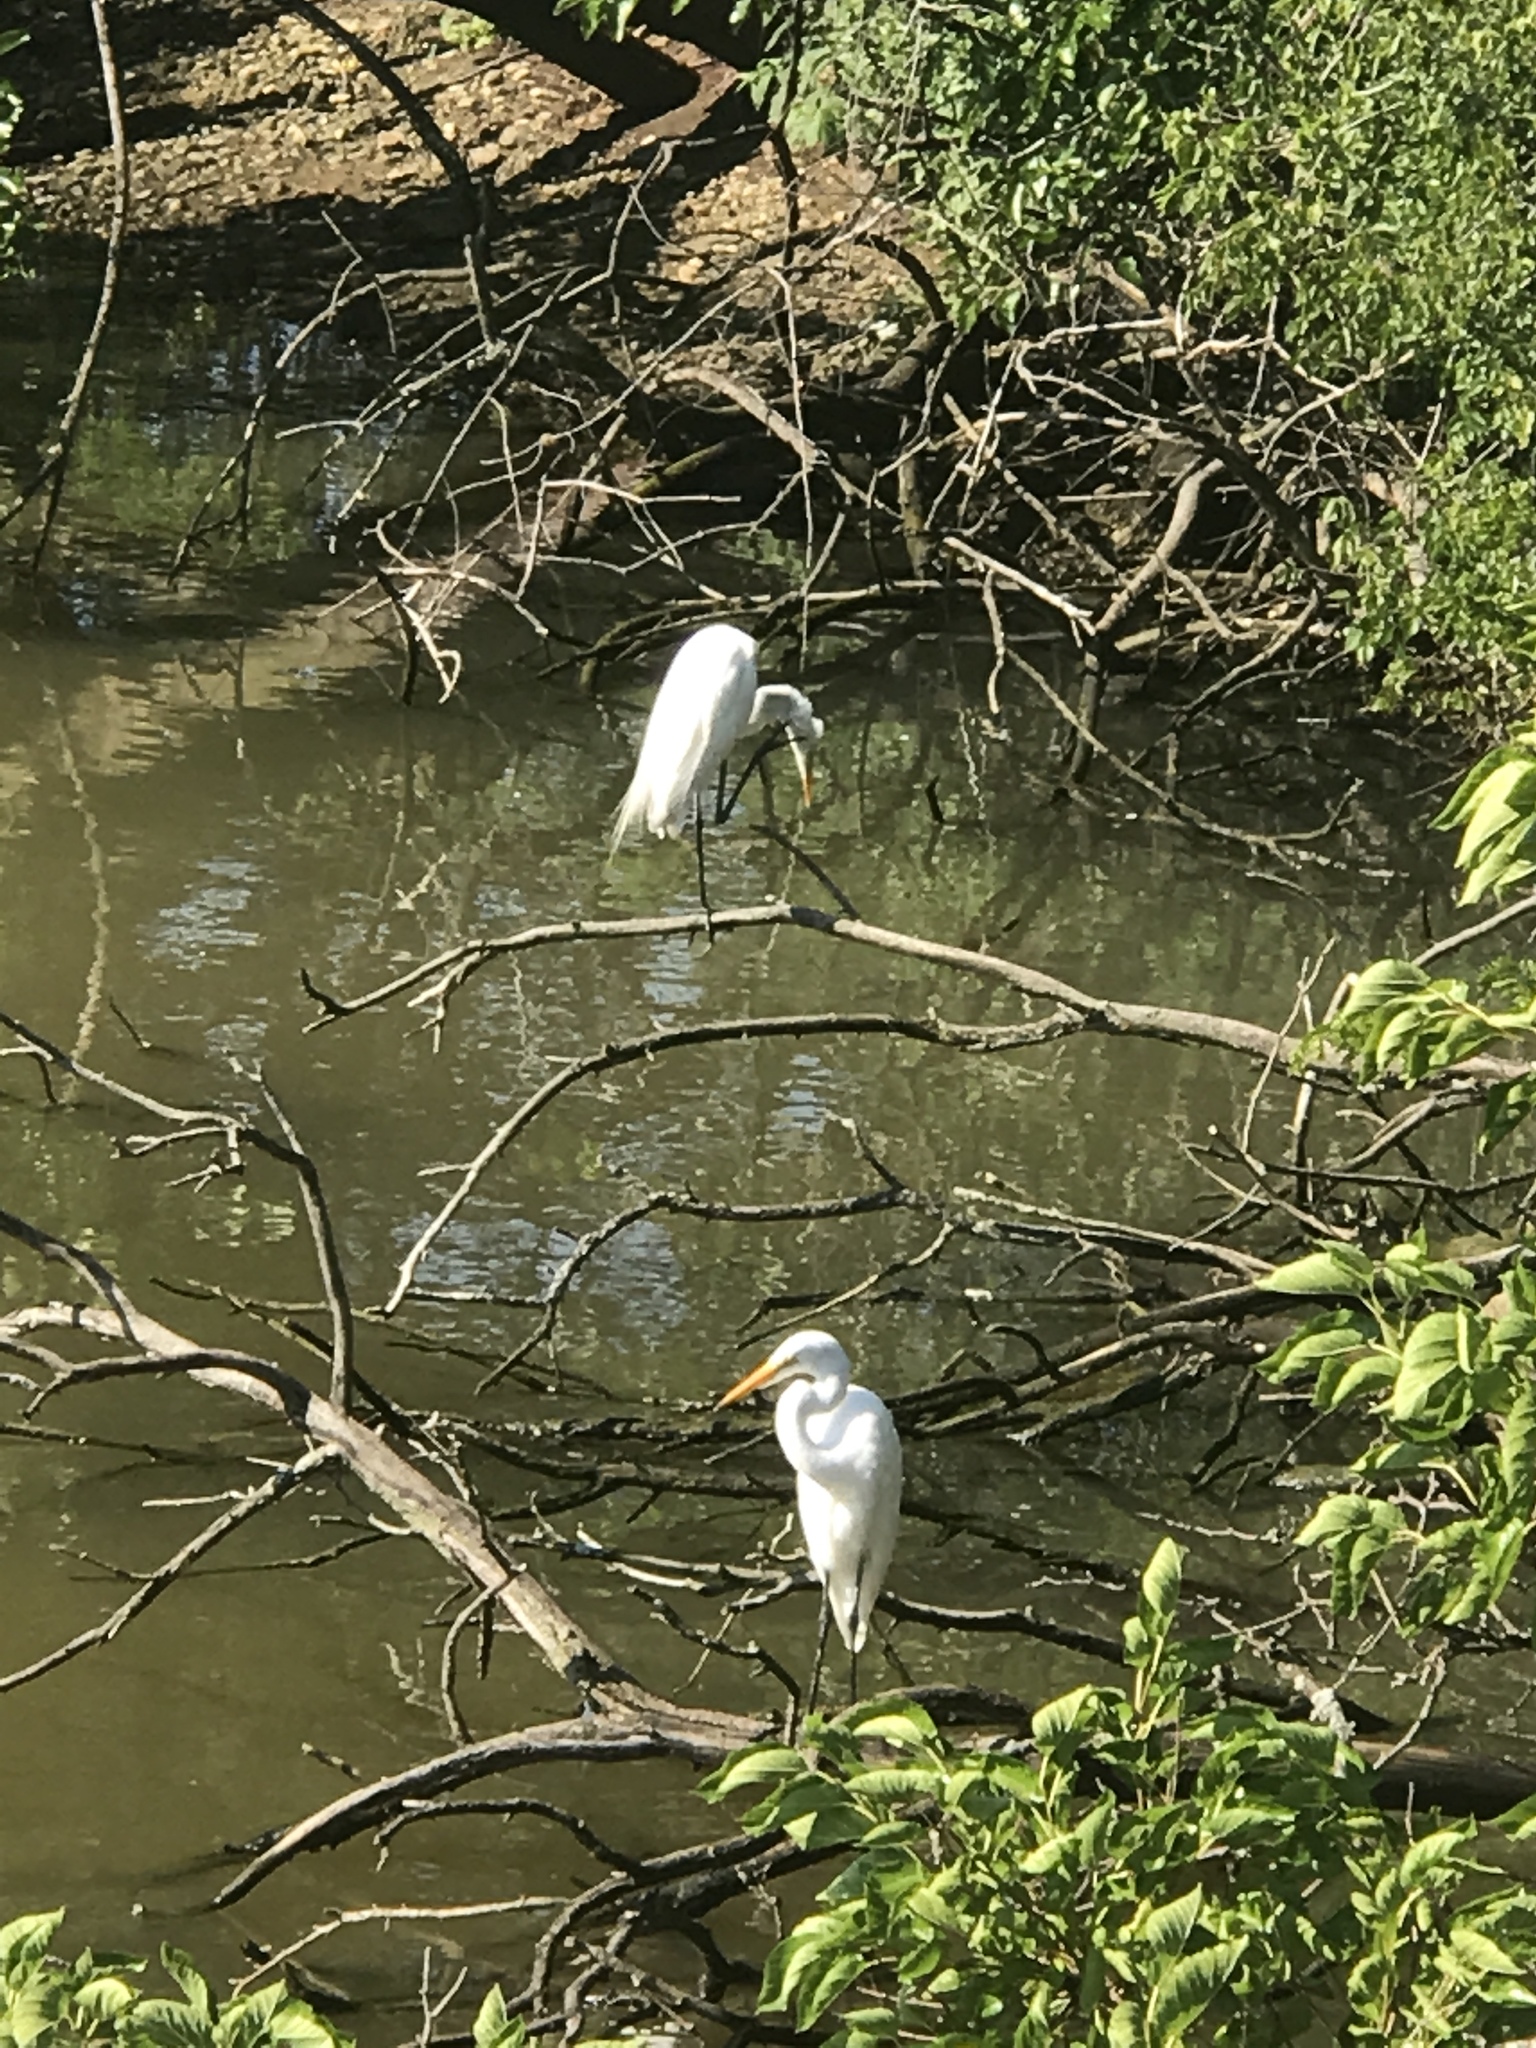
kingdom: Animalia
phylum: Chordata
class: Aves
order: Pelecaniformes
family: Ardeidae
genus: Ardea
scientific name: Ardea alba
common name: Great egret
